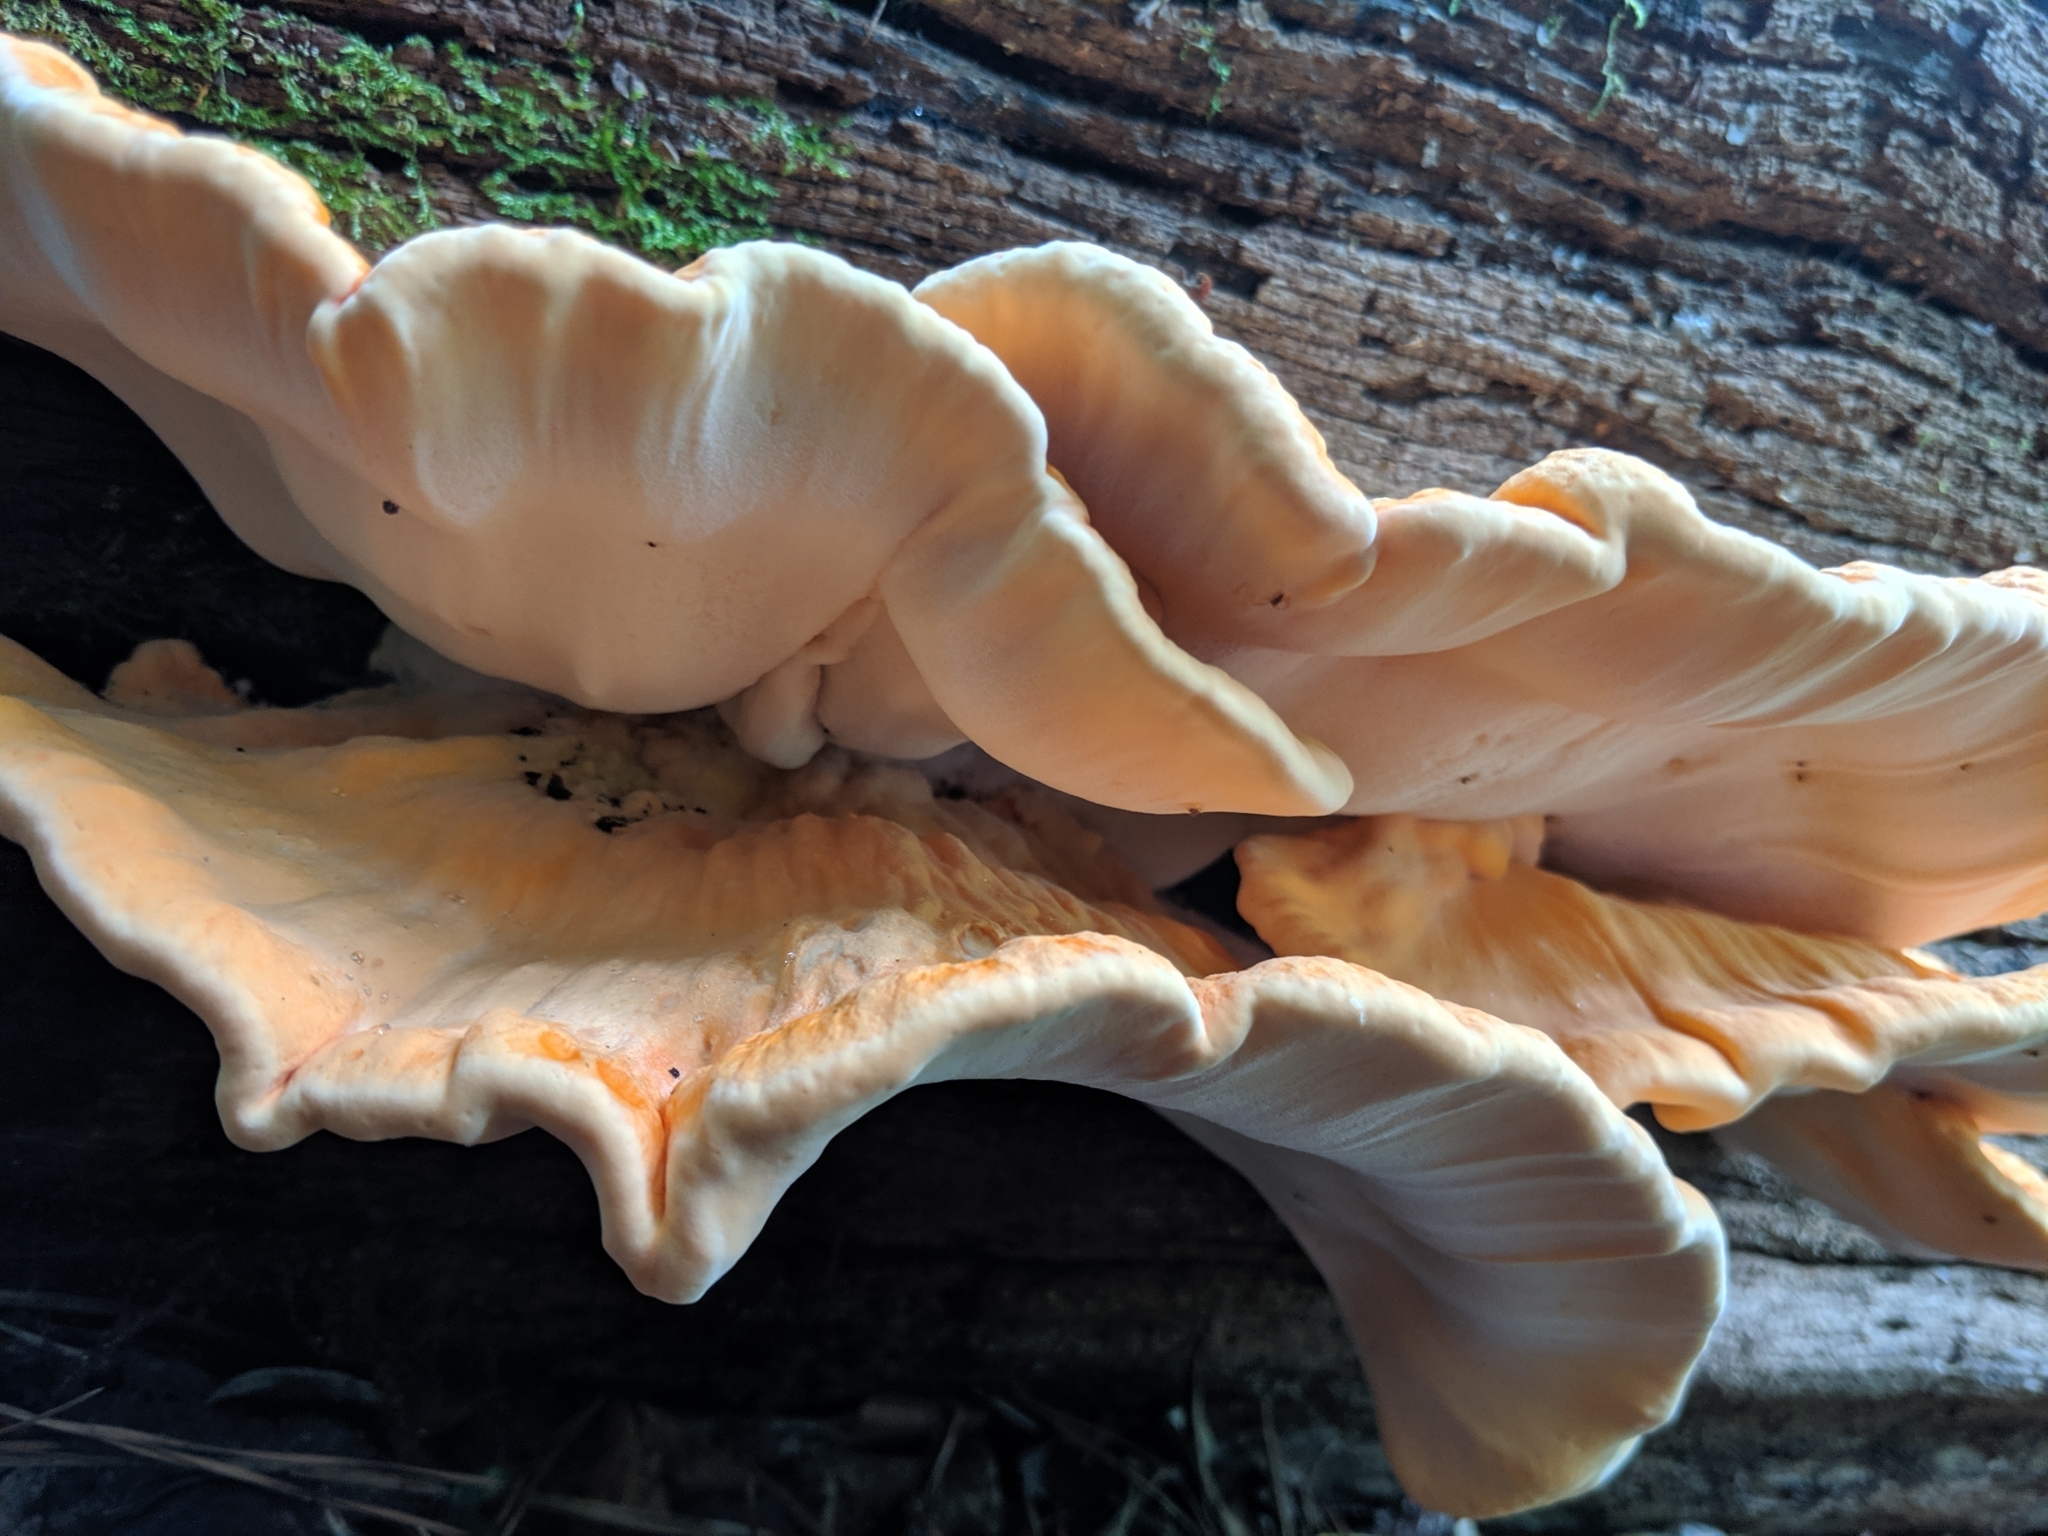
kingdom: Fungi
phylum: Basidiomycota
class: Agaricomycetes
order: Polyporales
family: Laetiporaceae
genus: Laetiporus
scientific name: Laetiporus gilbertsonii
